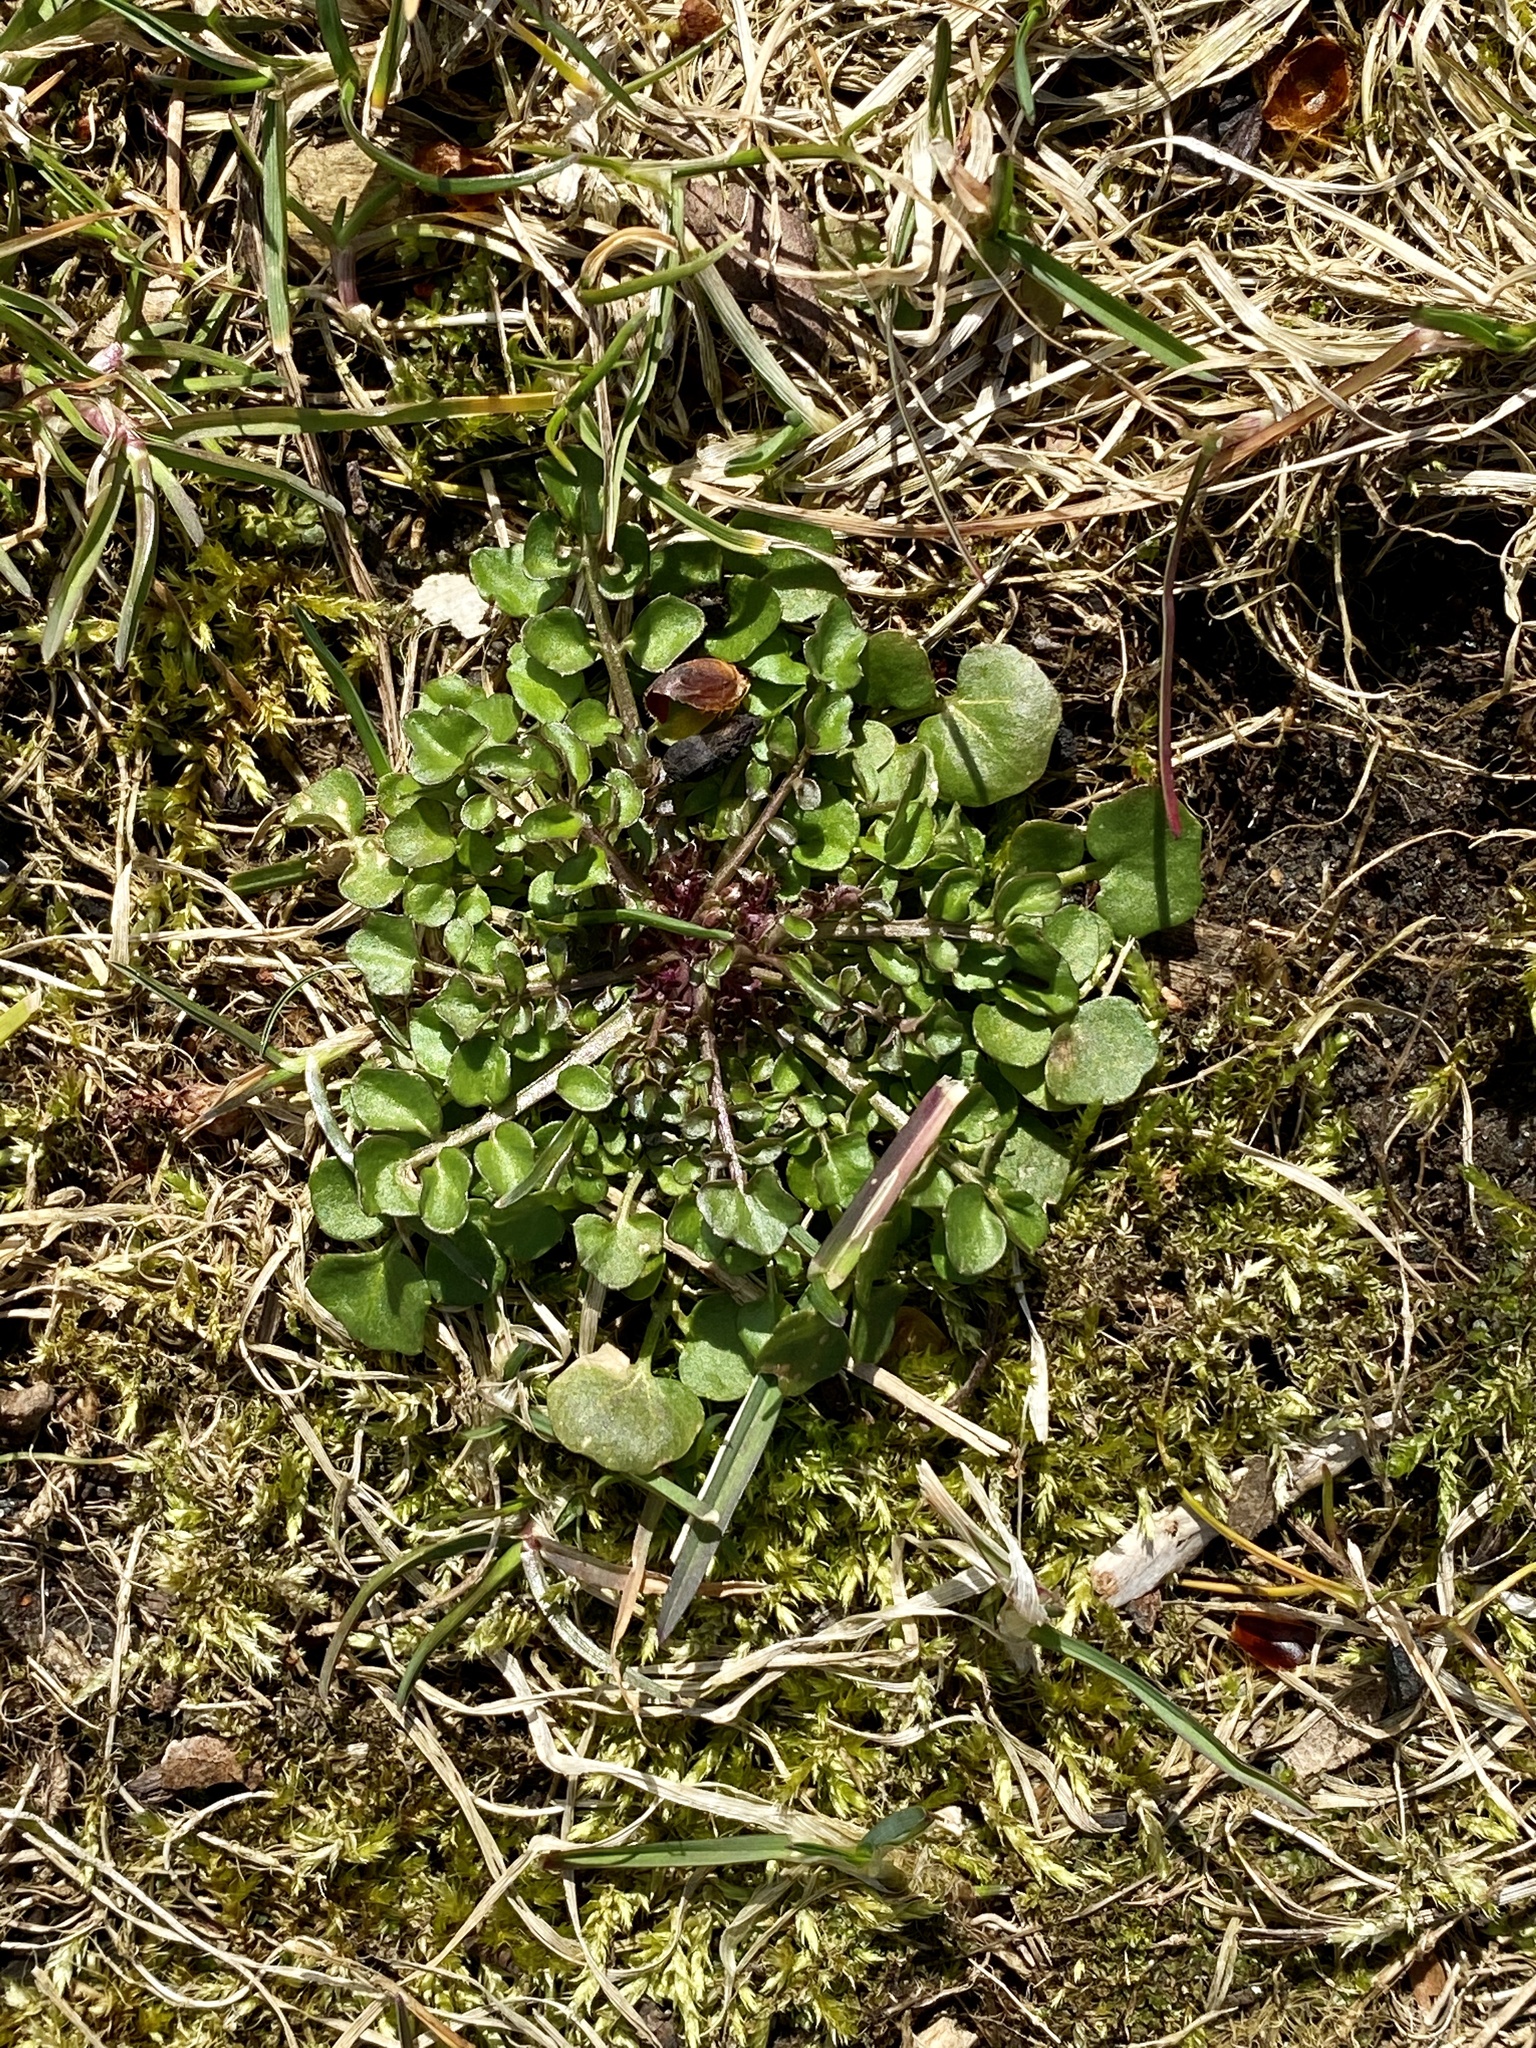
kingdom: Plantae
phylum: Tracheophyta
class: Magnoliopsida
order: Brassicales
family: Brassicaceae
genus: Cardamine
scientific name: Cardamine hirsuta
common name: Hairy bittercress
